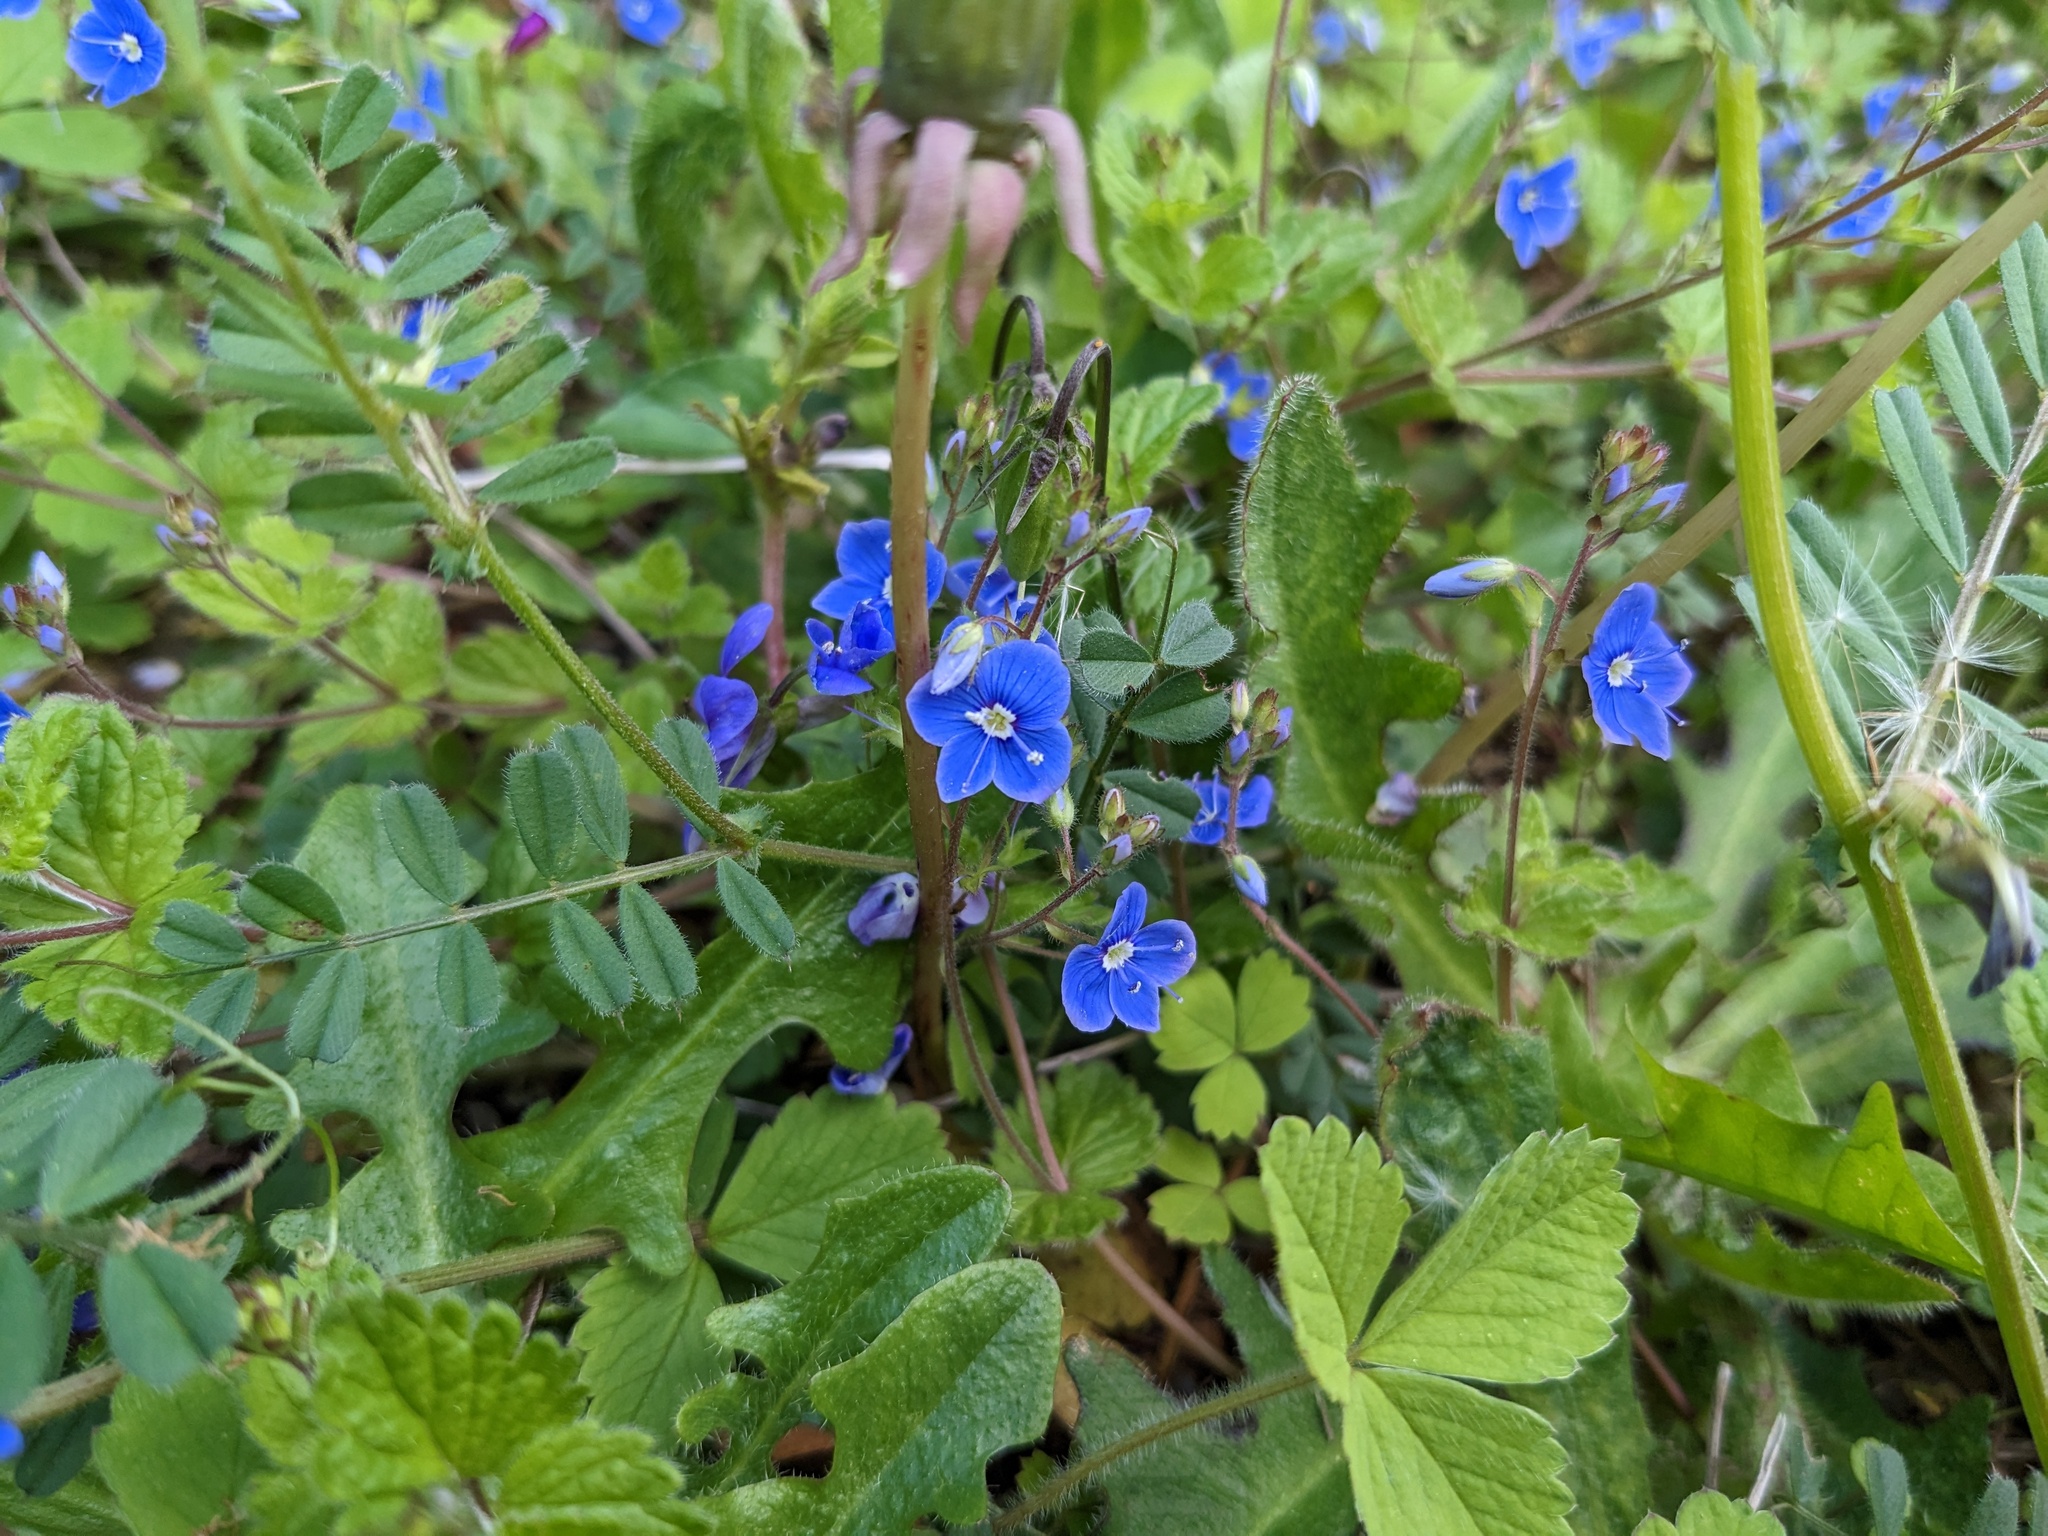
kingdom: Plantae
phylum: Tracheophyta
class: Magnoliopsida
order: Lamiales
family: Plantaginaceae
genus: Veronica
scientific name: Veronica chamaedrys
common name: Germander speedwell
